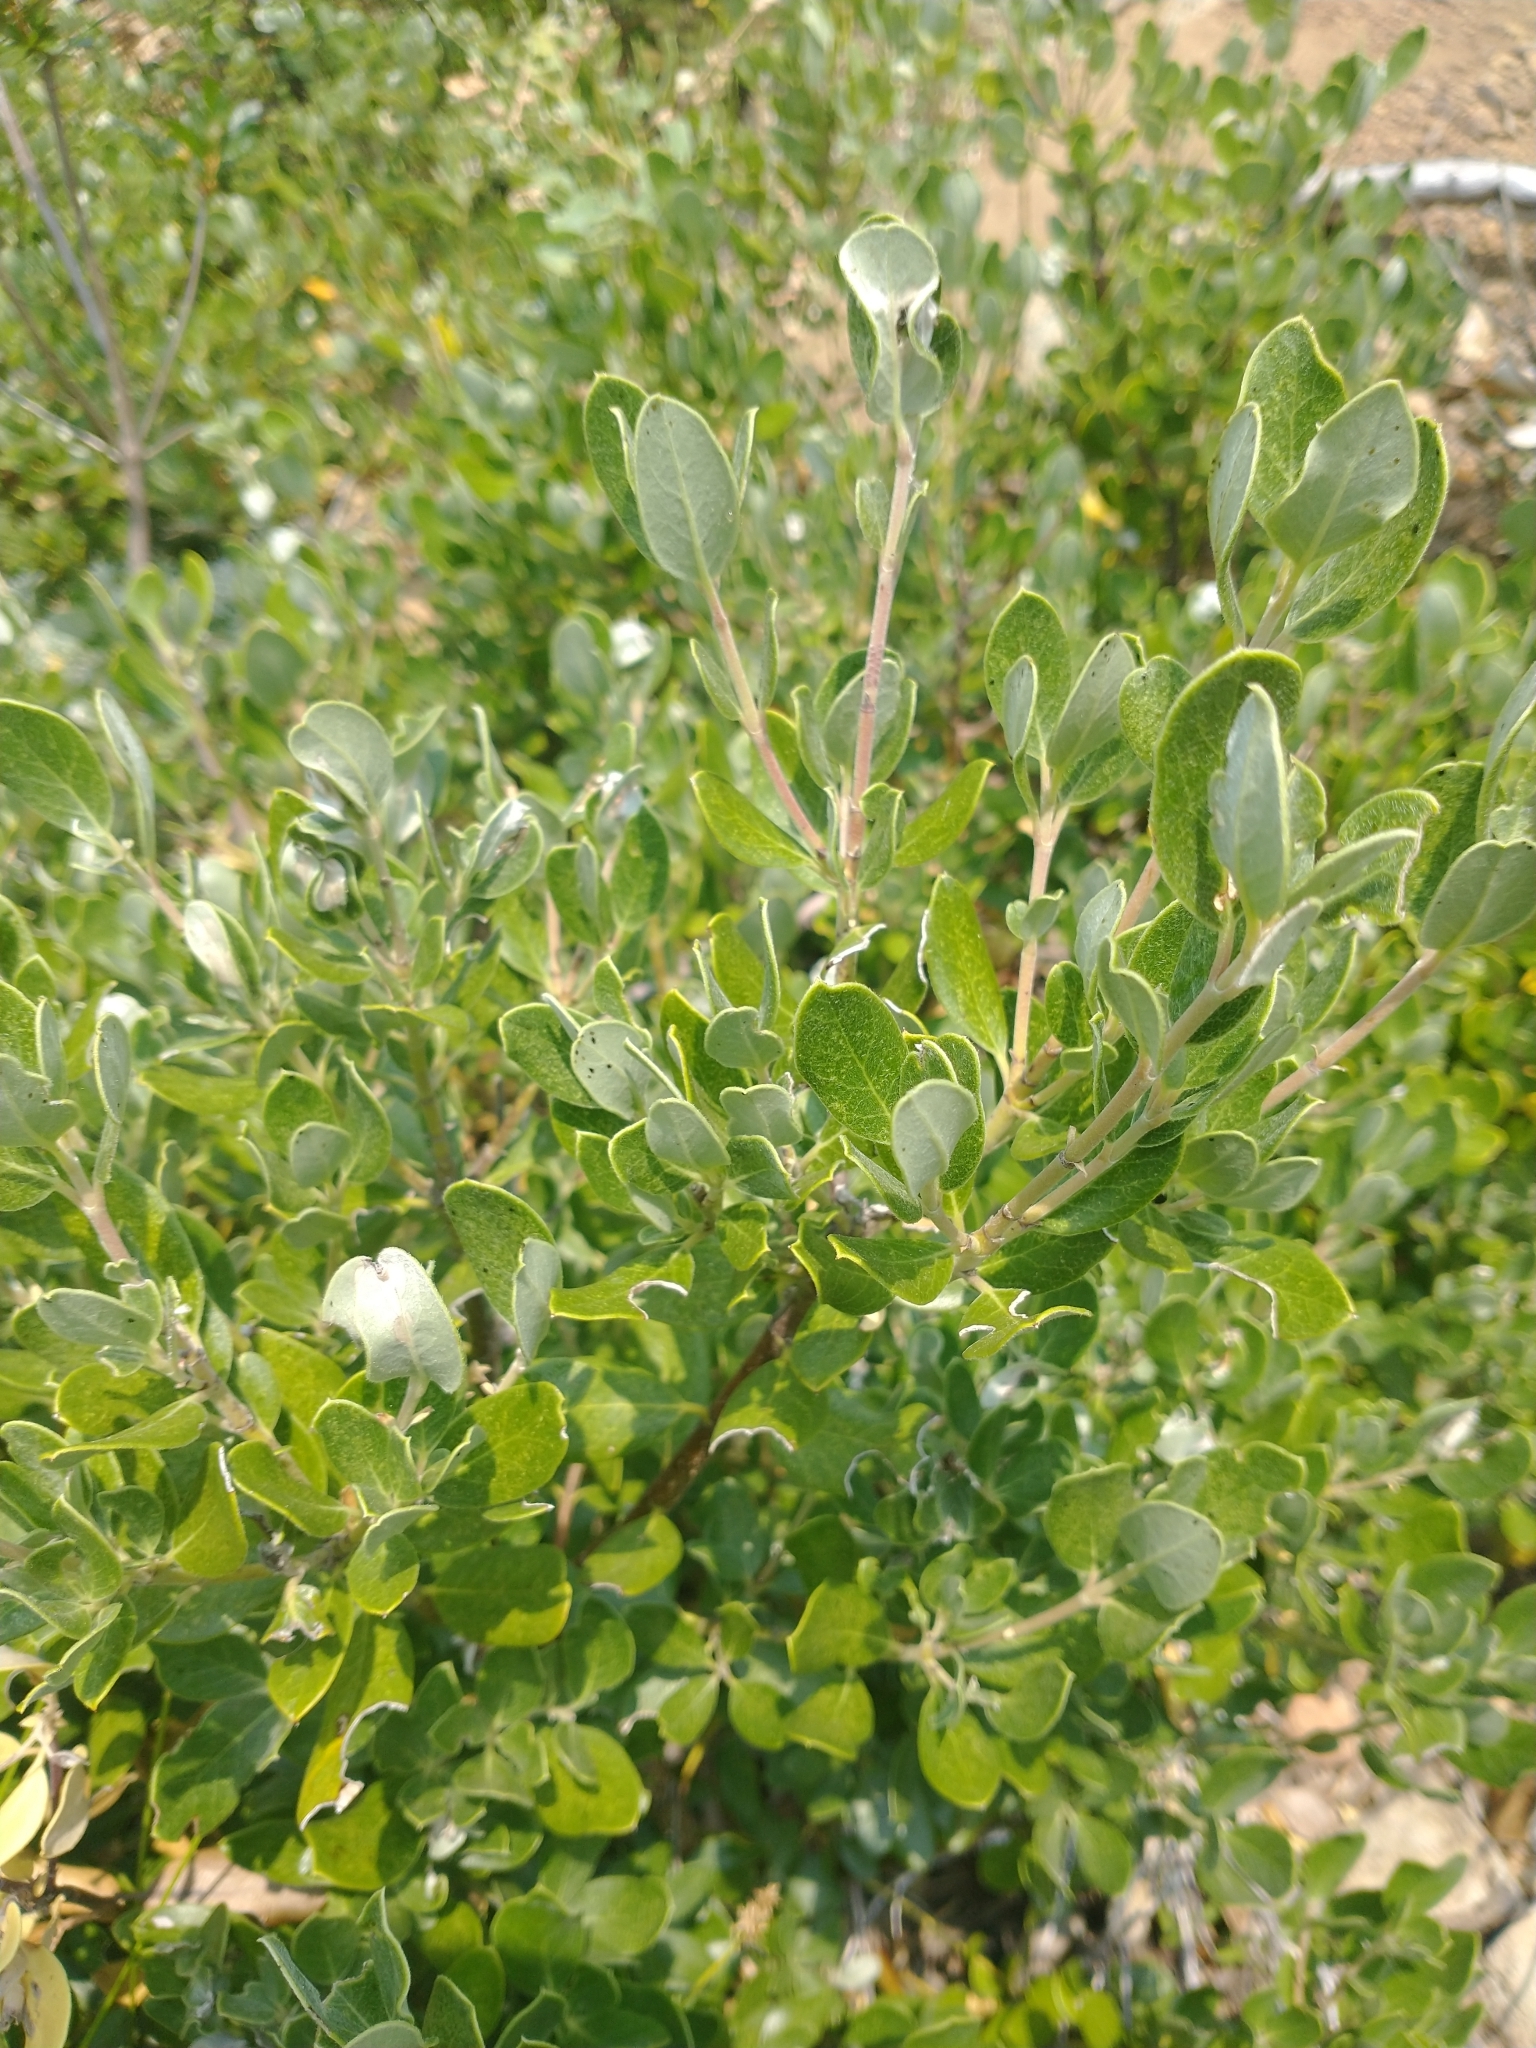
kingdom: Plantae
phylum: Tracheophyta
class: Magnoliopsida
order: Garryales
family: Garryaceae
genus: Garrya
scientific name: Garrya buxifolia
